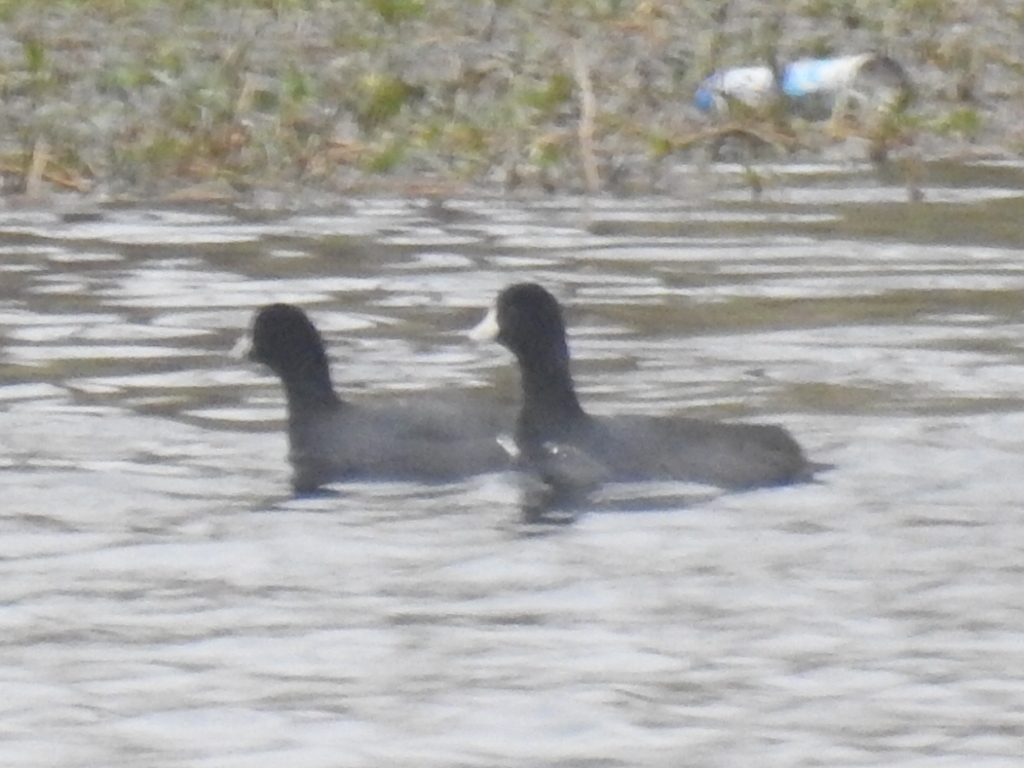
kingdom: Animalia
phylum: Chordata
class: Aves
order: Gruiformes
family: Rallidae
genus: Fulica
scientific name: Fulica americana
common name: American coot
